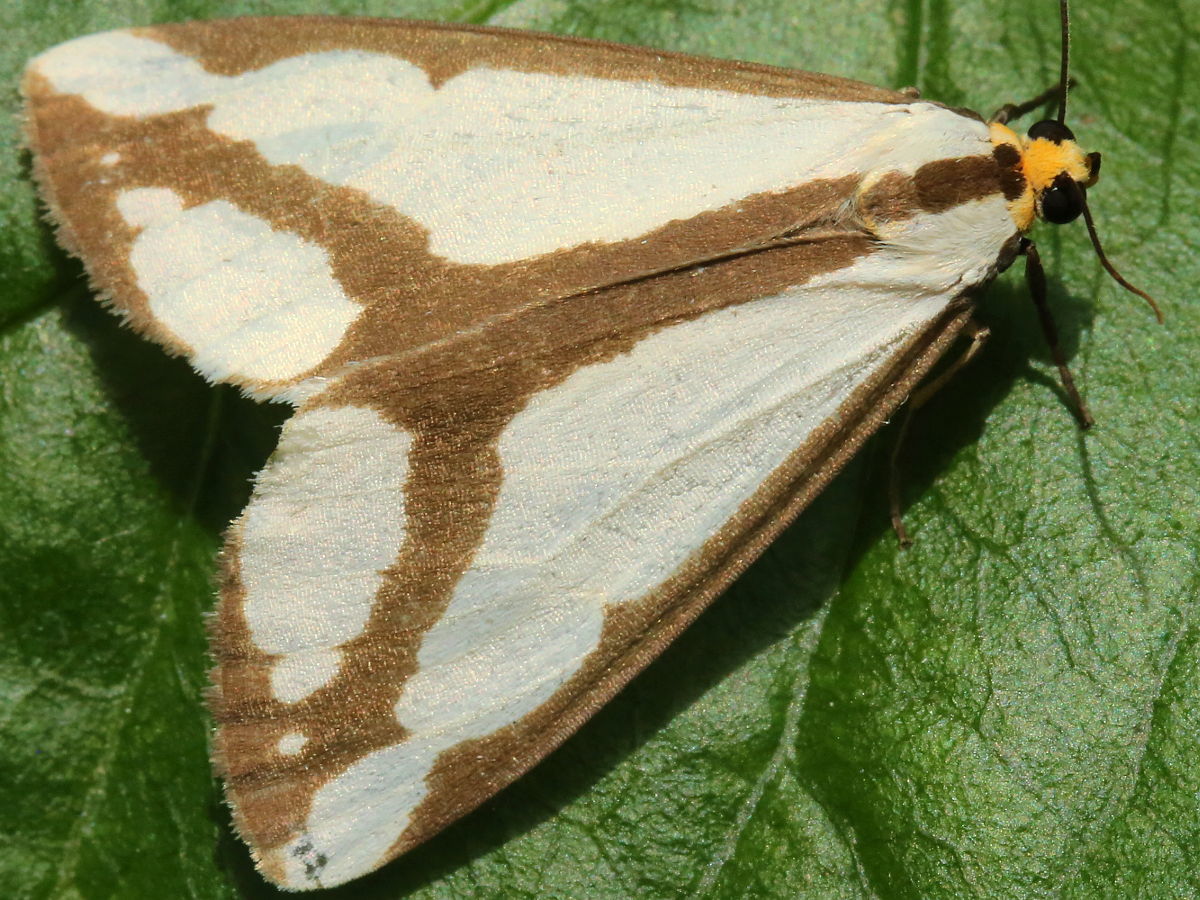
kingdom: Animalia
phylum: Arthropoda
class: Insecta
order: Lepidoptera
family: Erebidae
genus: Haploa
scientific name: Haploa lecontei
